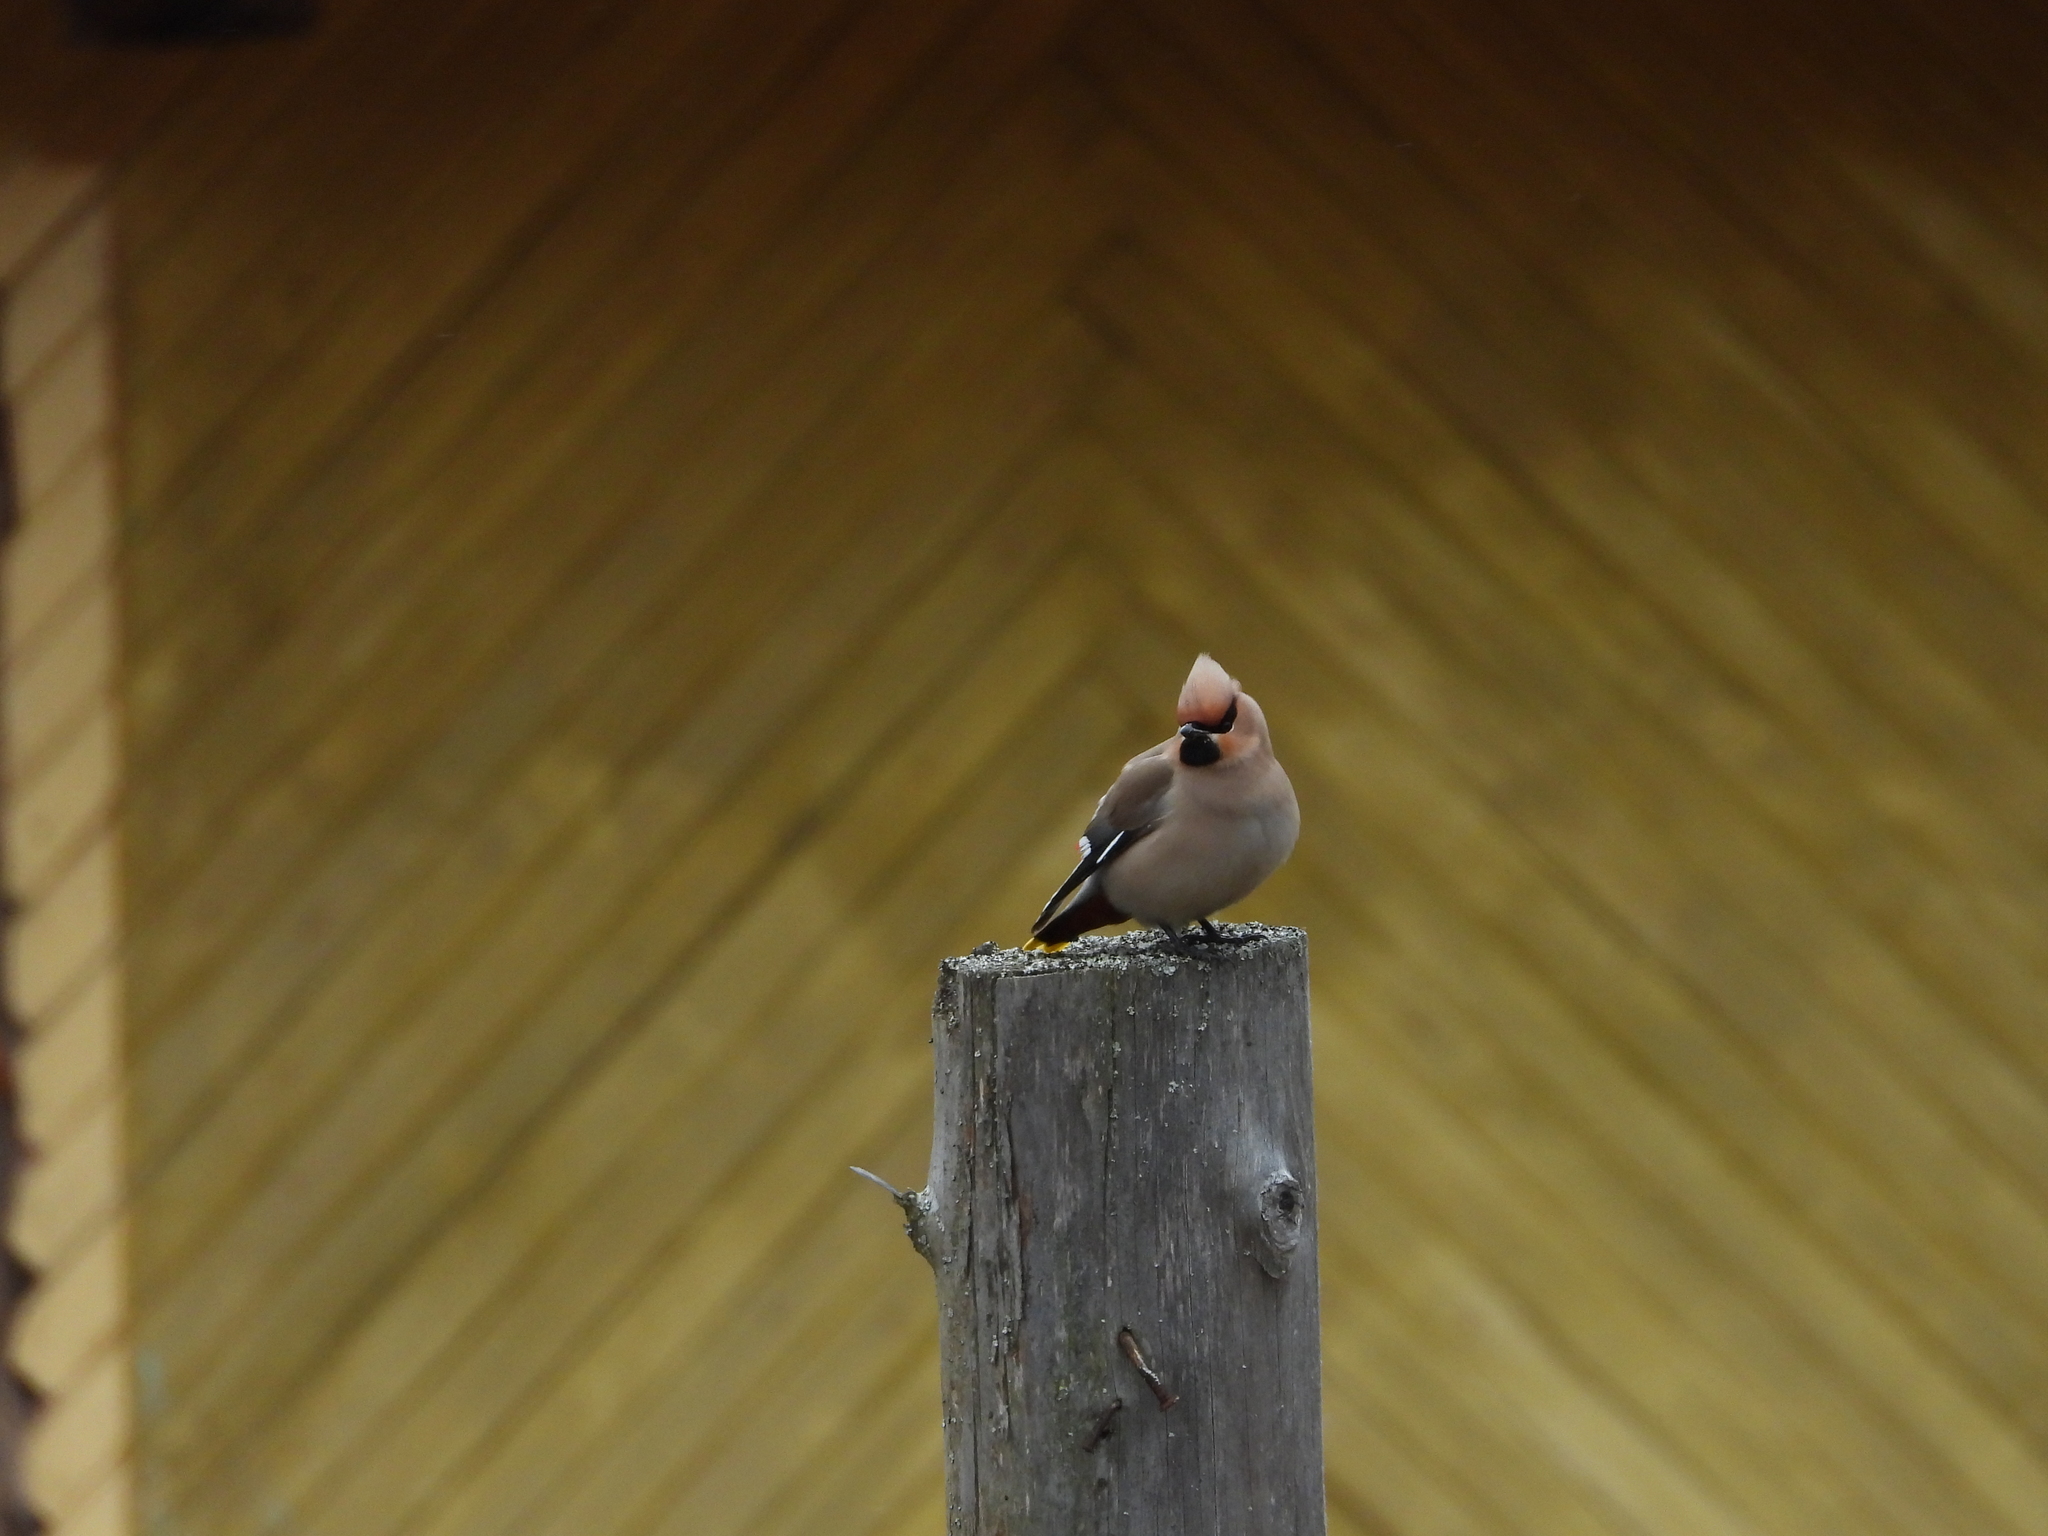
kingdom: Animalia
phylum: Chordata
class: Aves
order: Passeriformes
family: Bombycillidae
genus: Bombycilla
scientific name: Bombycilla garrulus
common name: Bohemian waxwing
